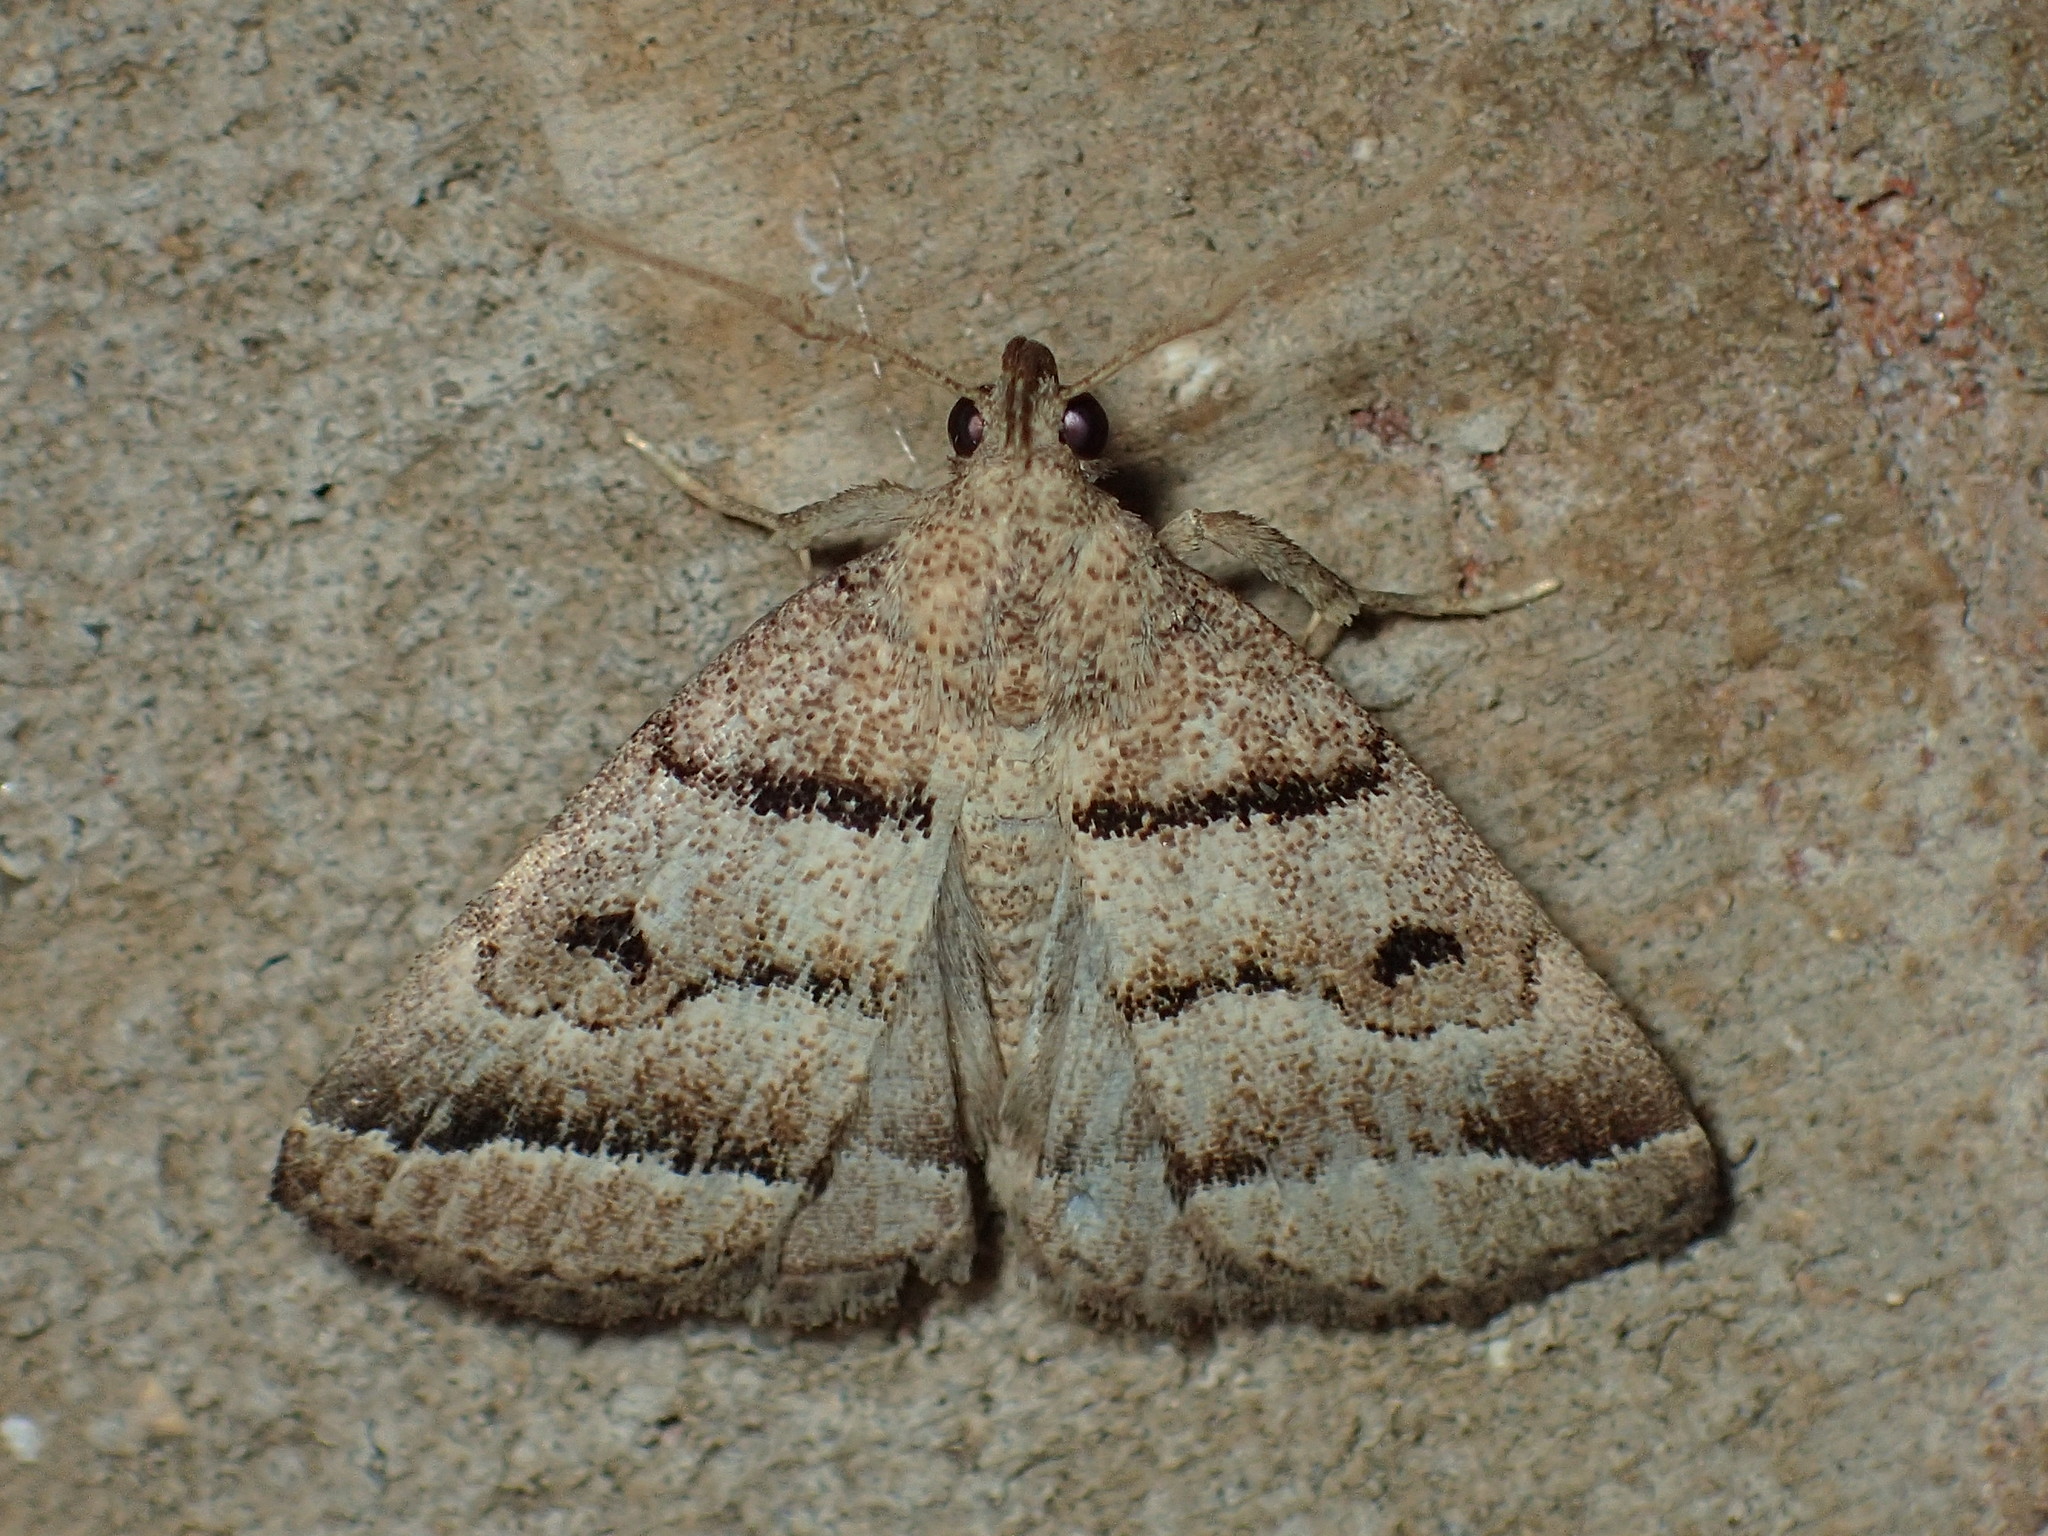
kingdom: Animalia
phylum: Arthropoda
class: Insecta
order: Lepidoptera
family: Erebidae
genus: Zanclognatha
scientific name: Zanclognatha atrilineella
